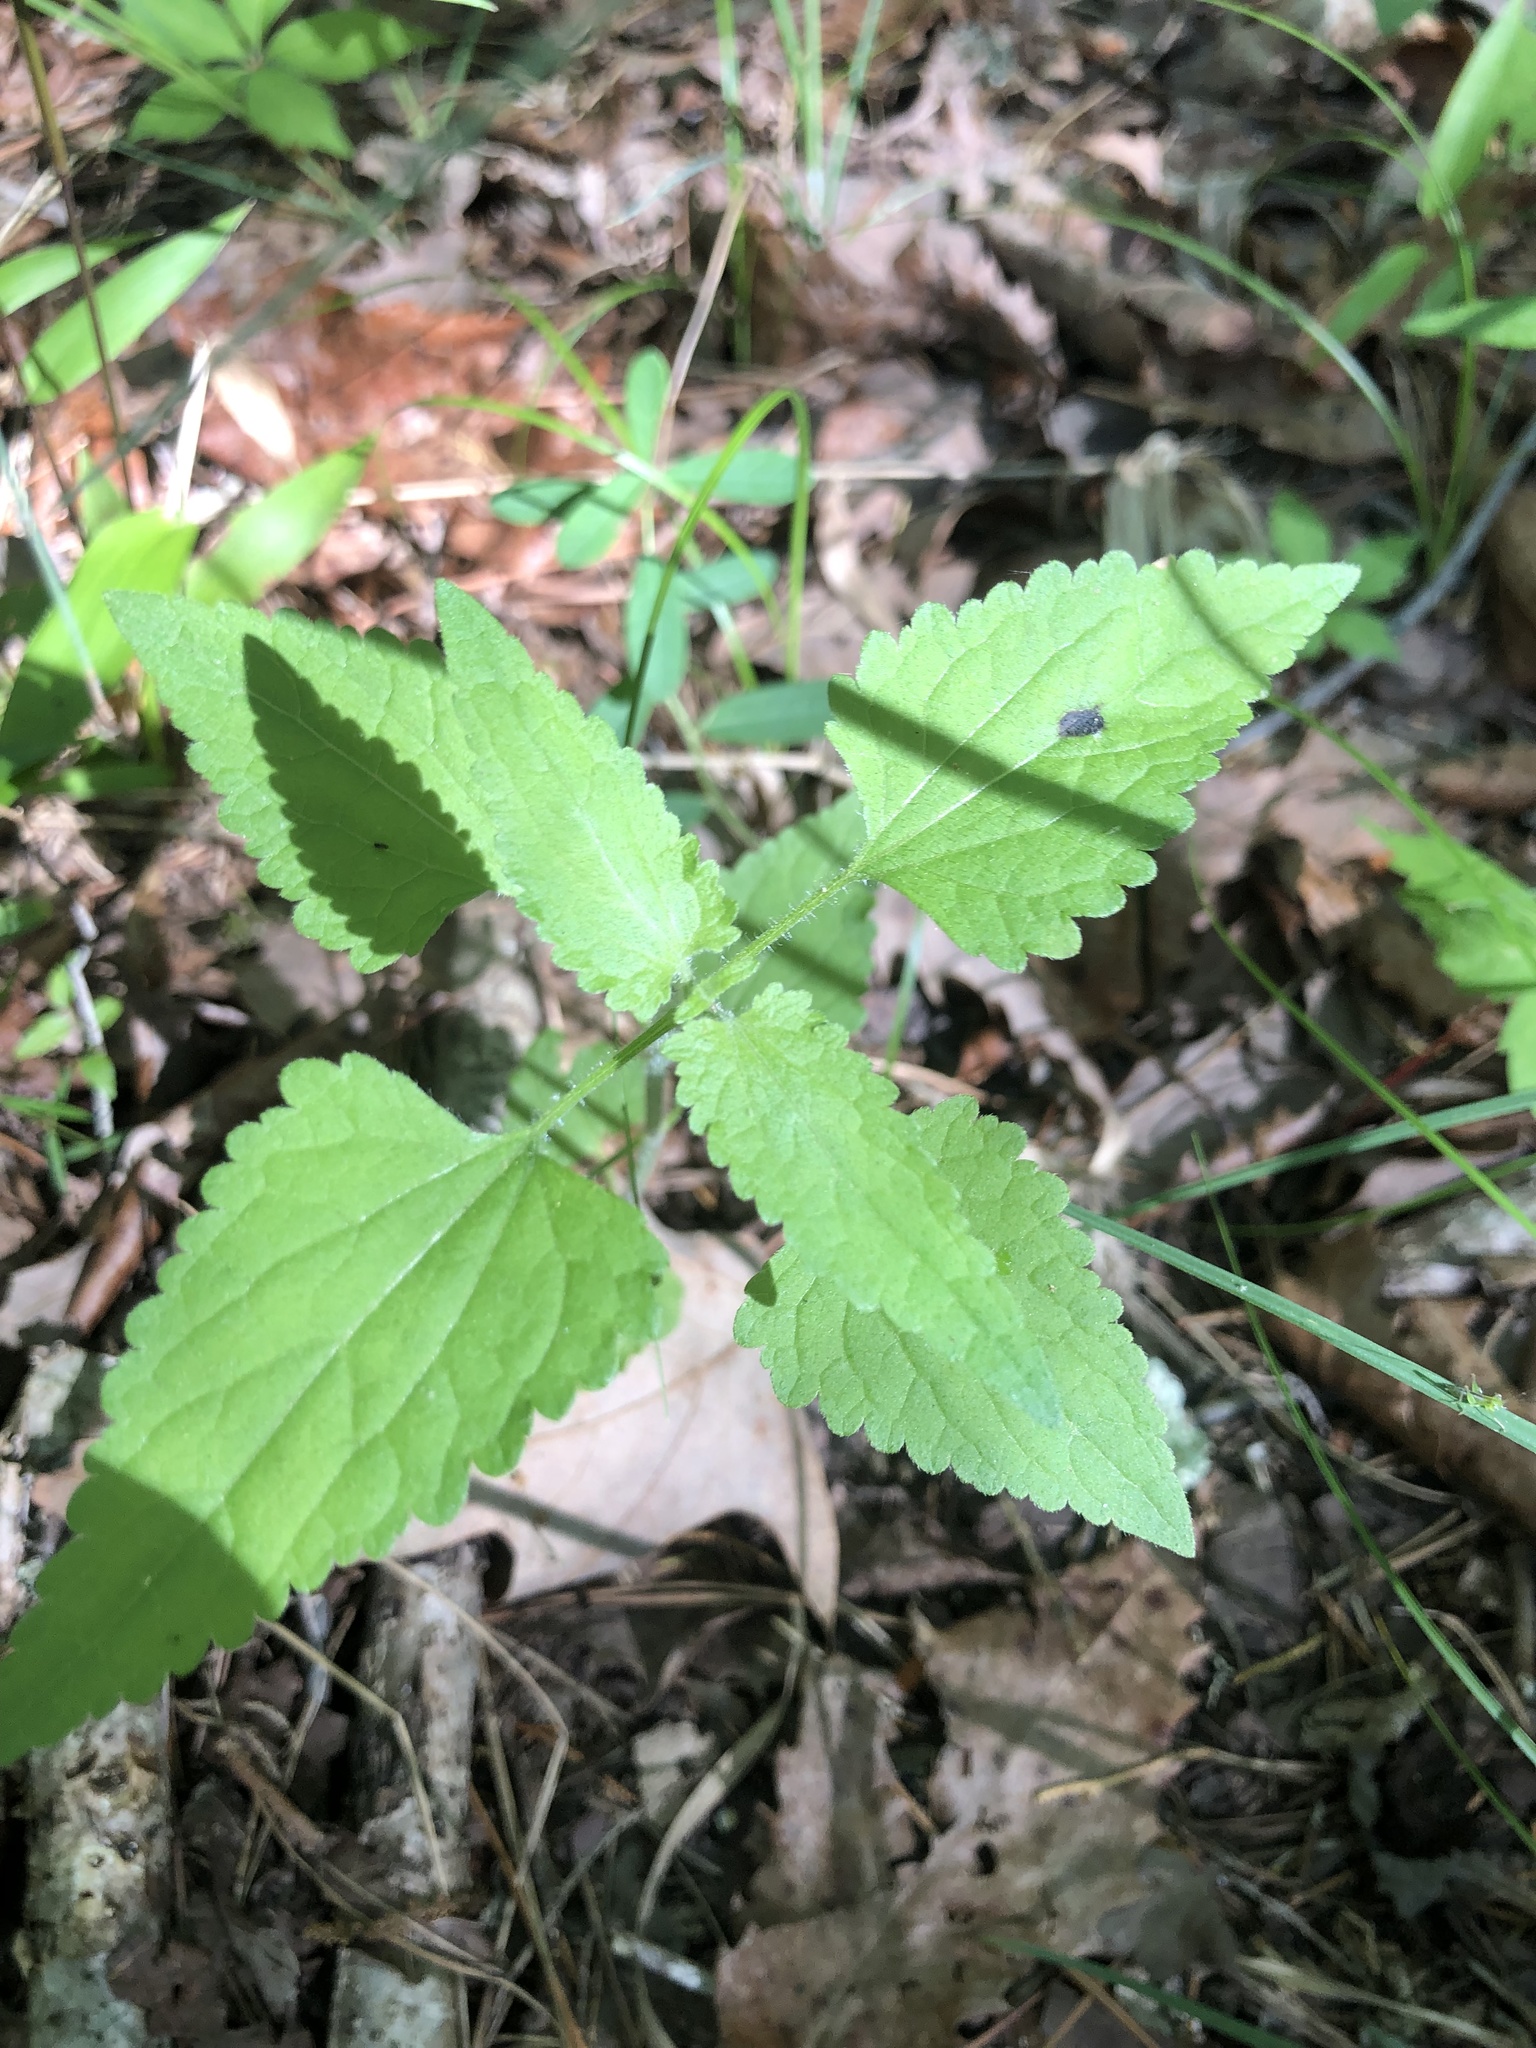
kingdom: Plantae
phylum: Tracheophyta
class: Magnoliopsida
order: Asterales
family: Asteraceae
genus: Fleischmannia
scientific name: Fleischmannia incarnata
